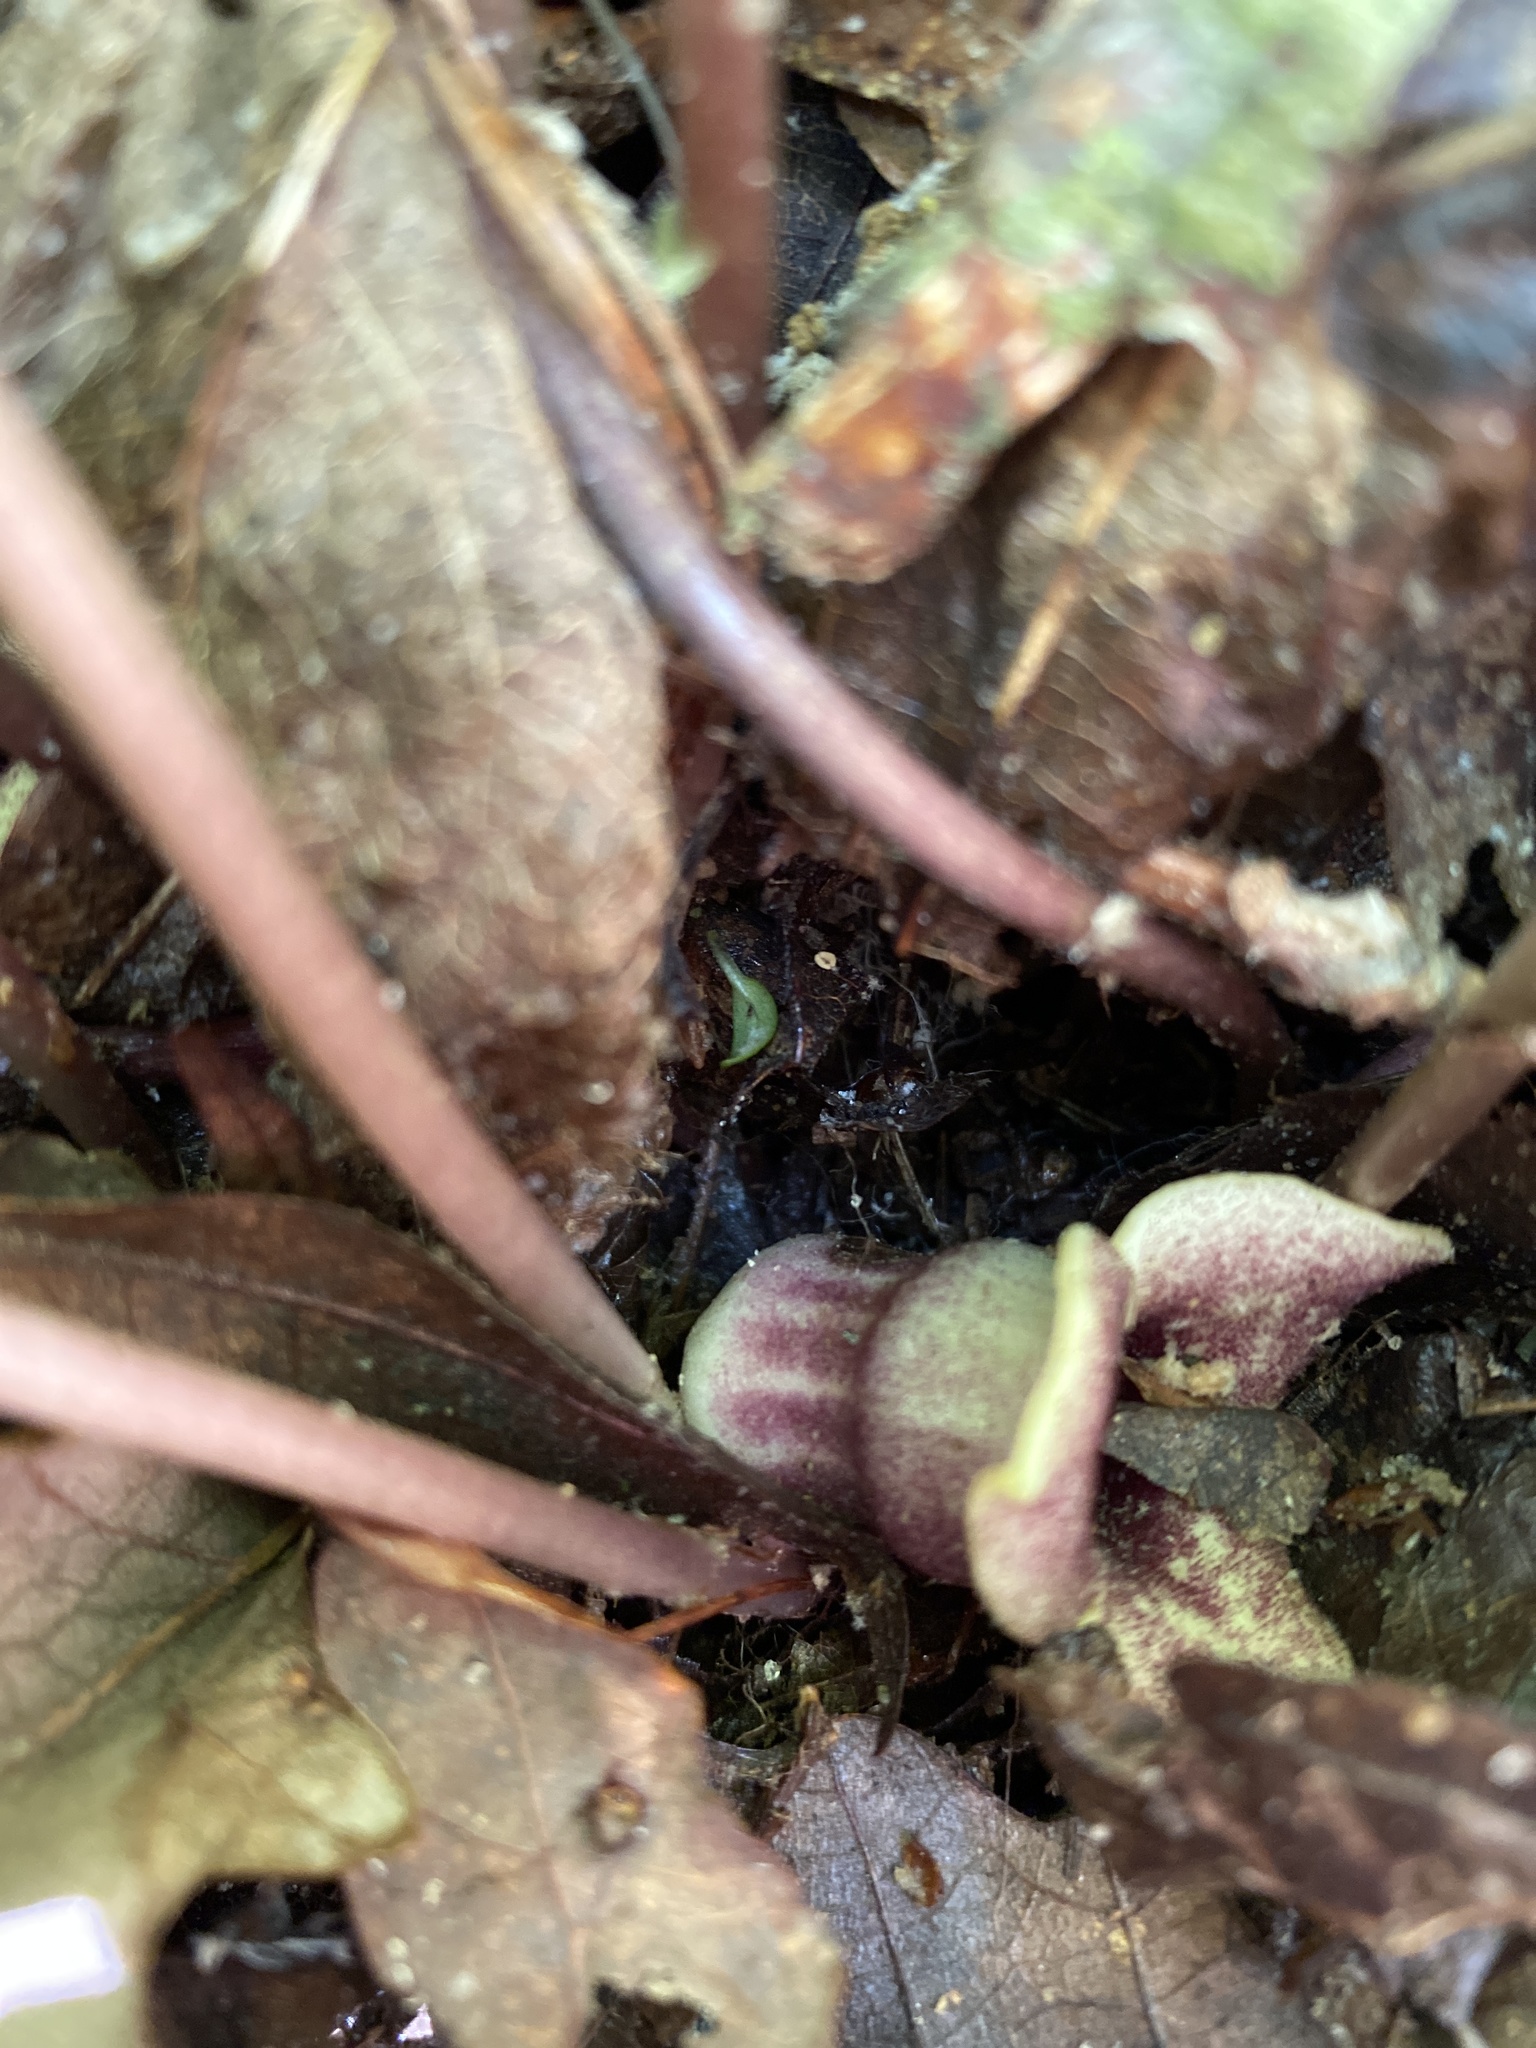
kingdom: Plantae
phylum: Tracheophyta
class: Magnoliopsida
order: Piperales
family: Aristolochiaceae
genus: Hexastylis
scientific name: Hexastylis heterophylla
